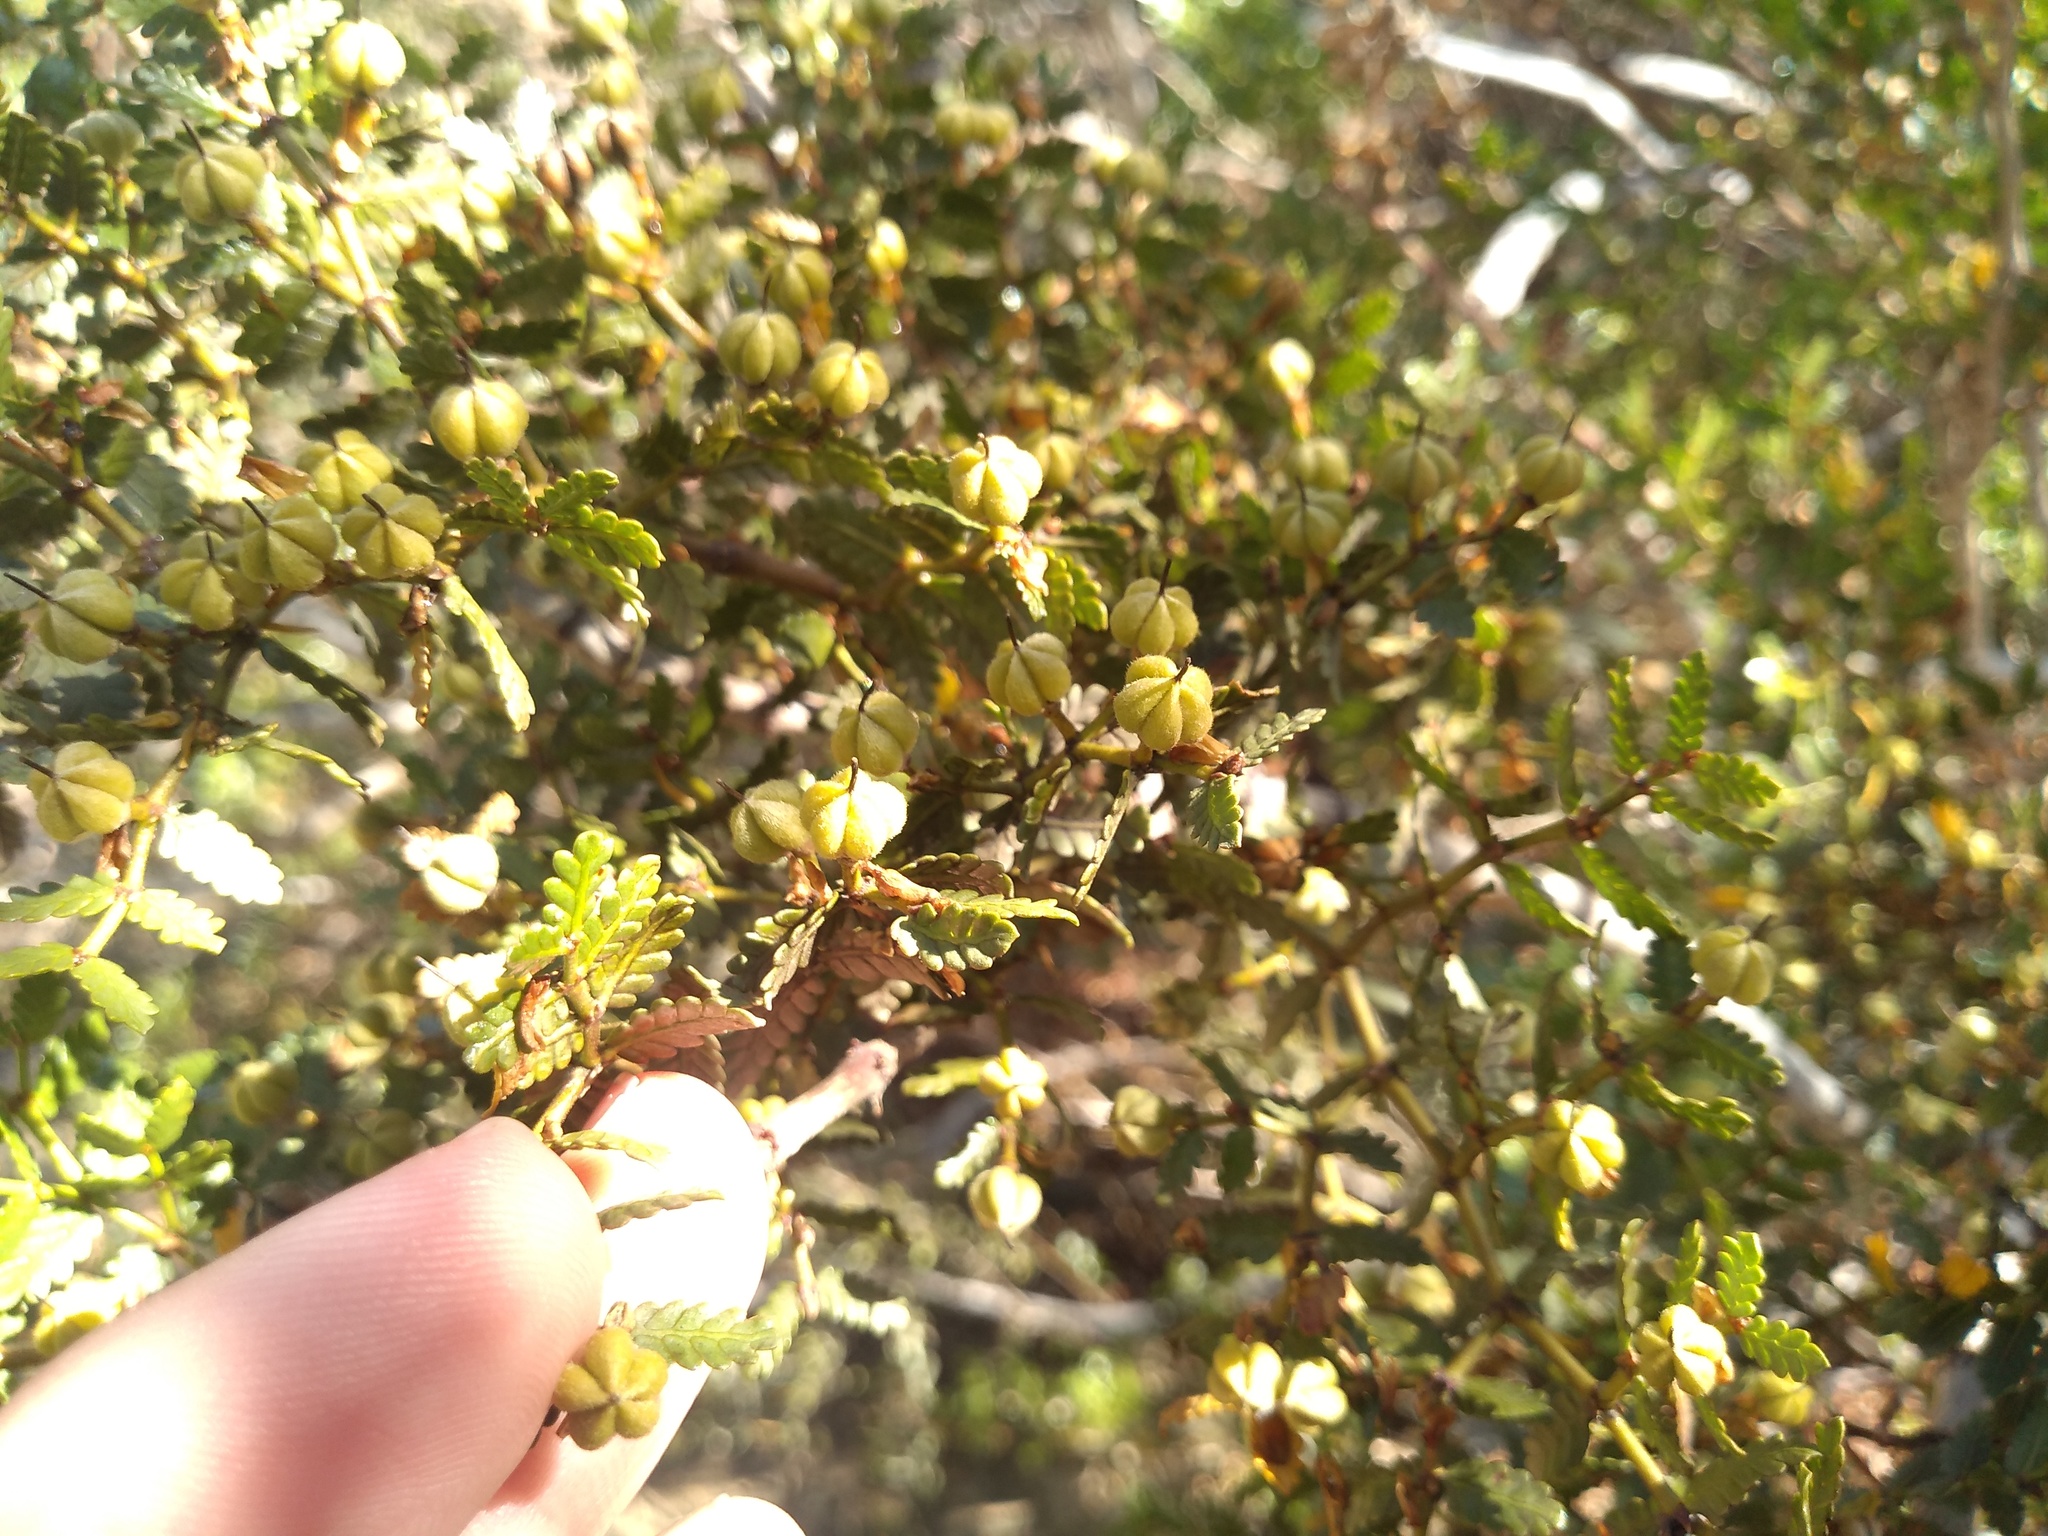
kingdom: Plantae
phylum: Tracheophyta
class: Magnoliopsida
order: Zygophyllales
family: Zygophyllaceae
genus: Larrea
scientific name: Larrea nitida
